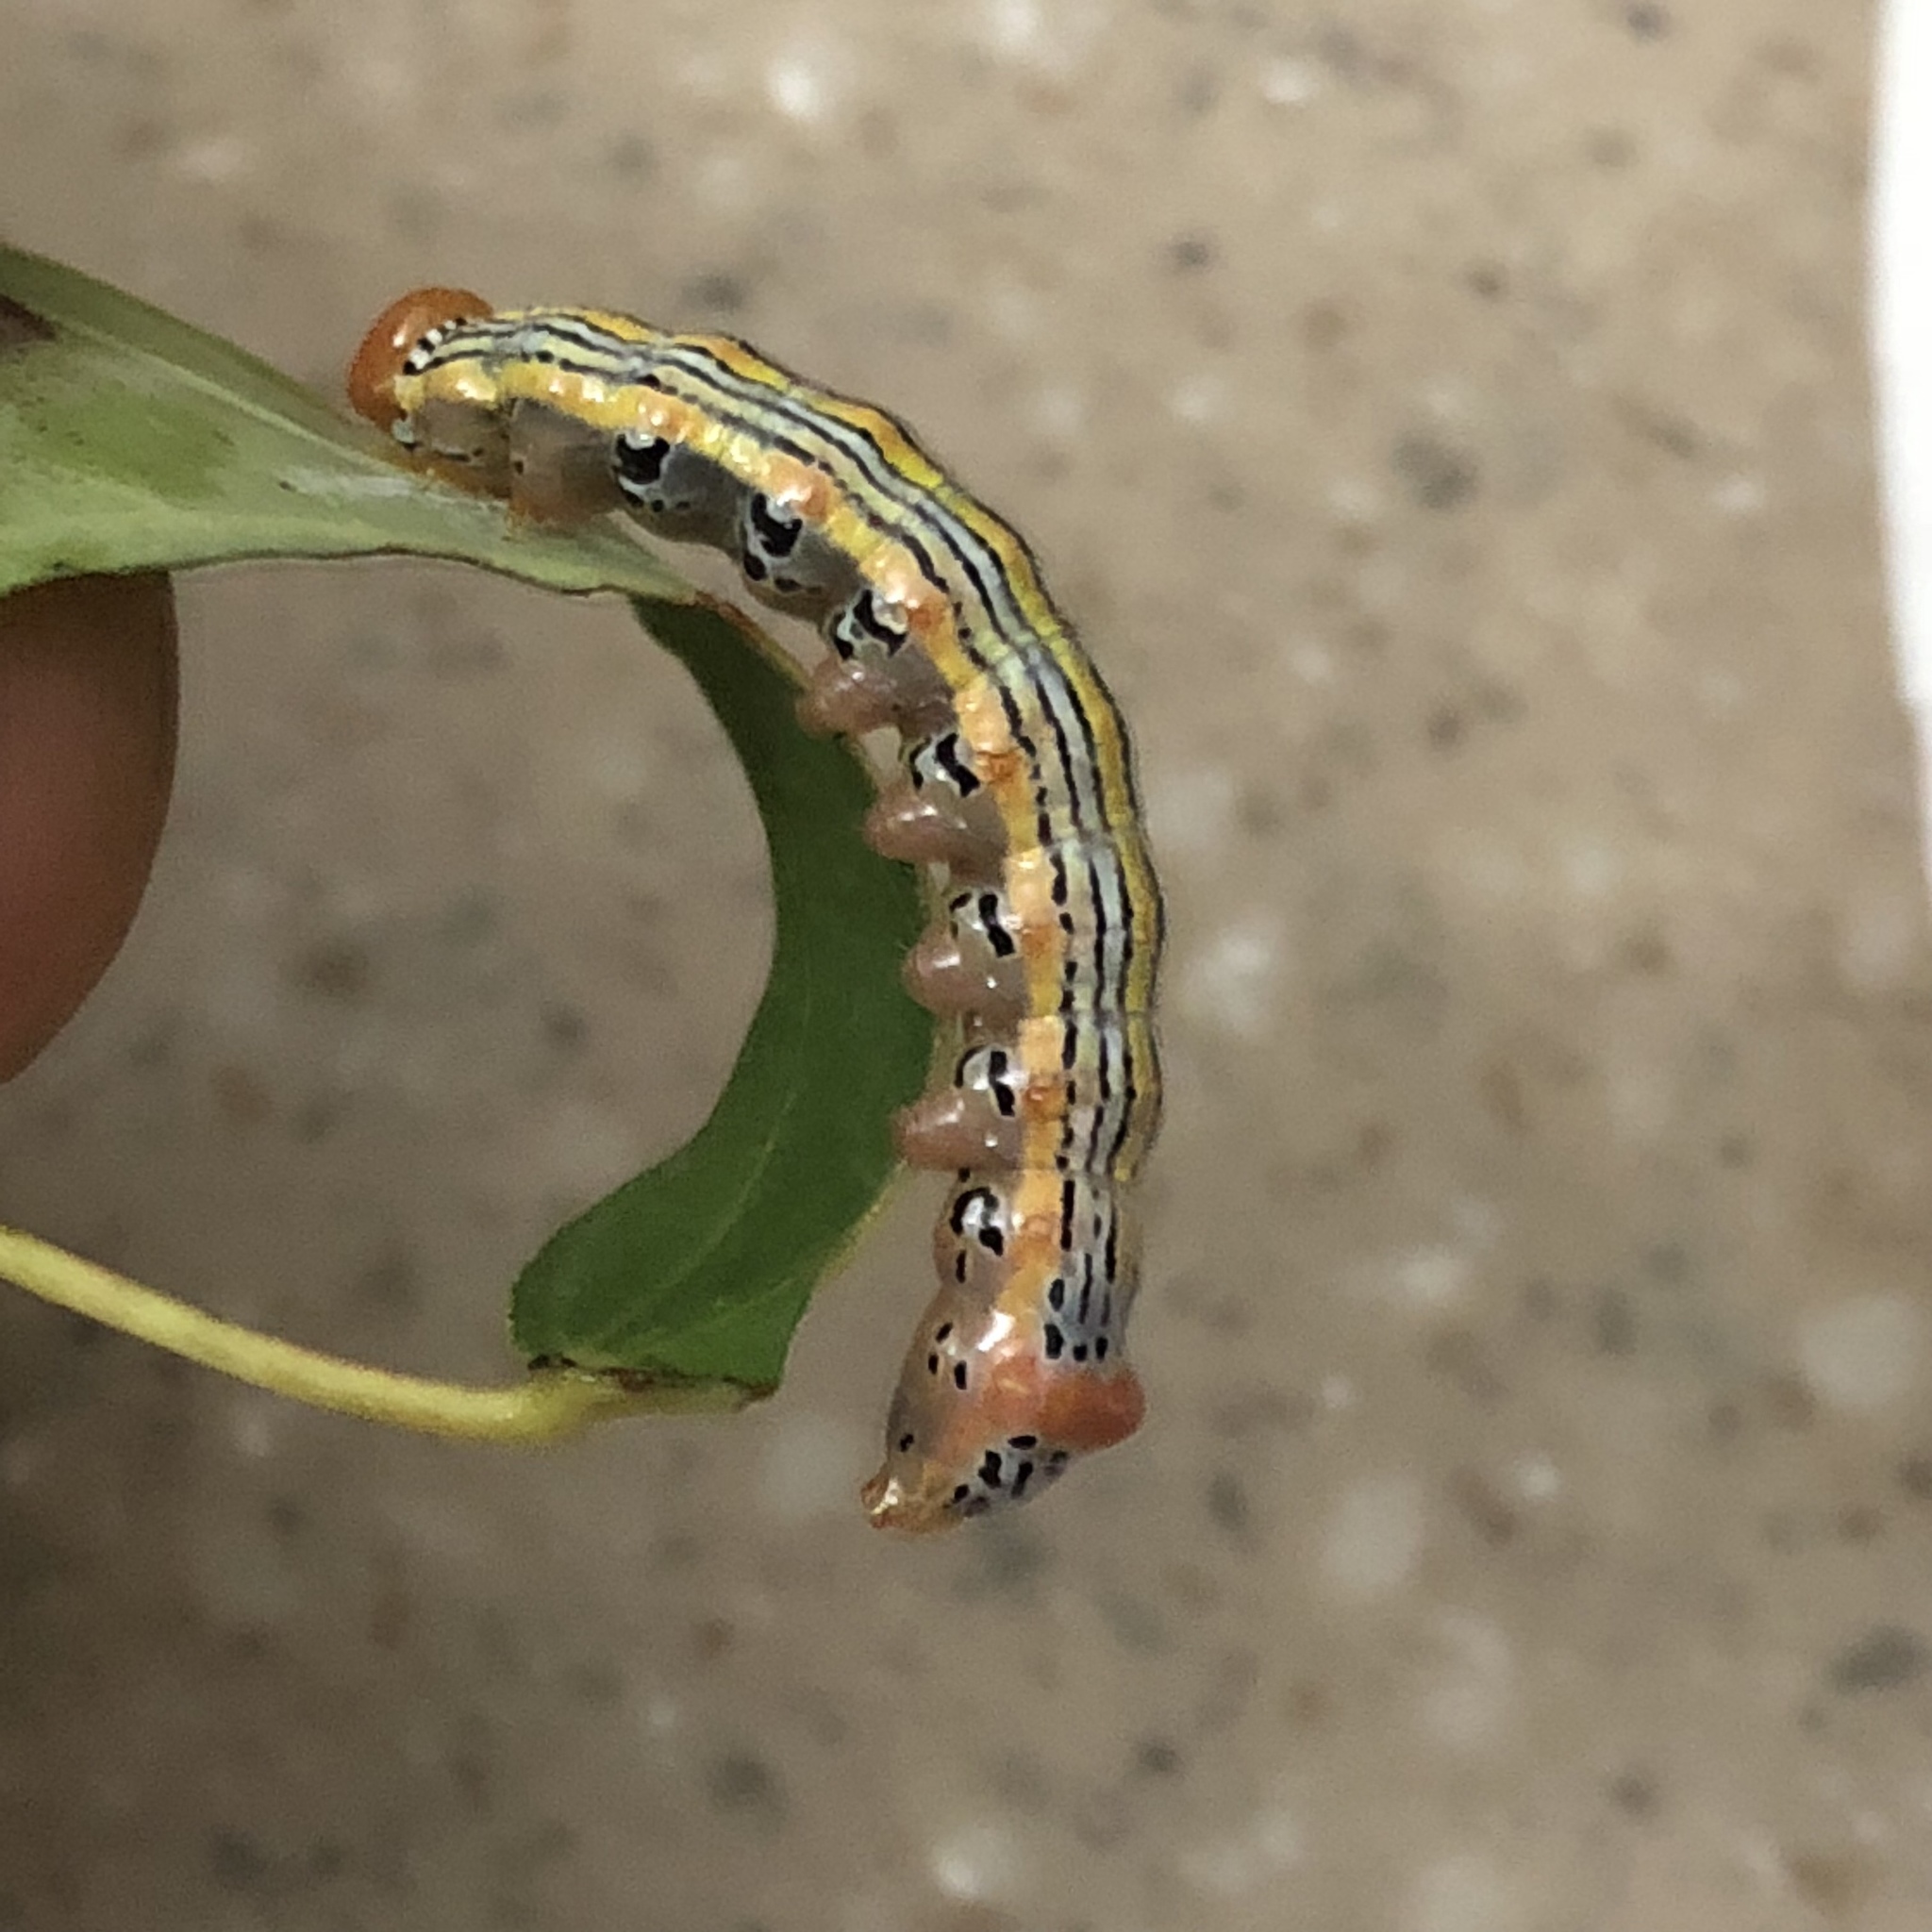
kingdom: Animalia
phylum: Arthropoda
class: Insecta
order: Lepidoptera
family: Notodontidae
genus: Symmerista
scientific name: Symmerista leucitys
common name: Orange-humped mapleworm
